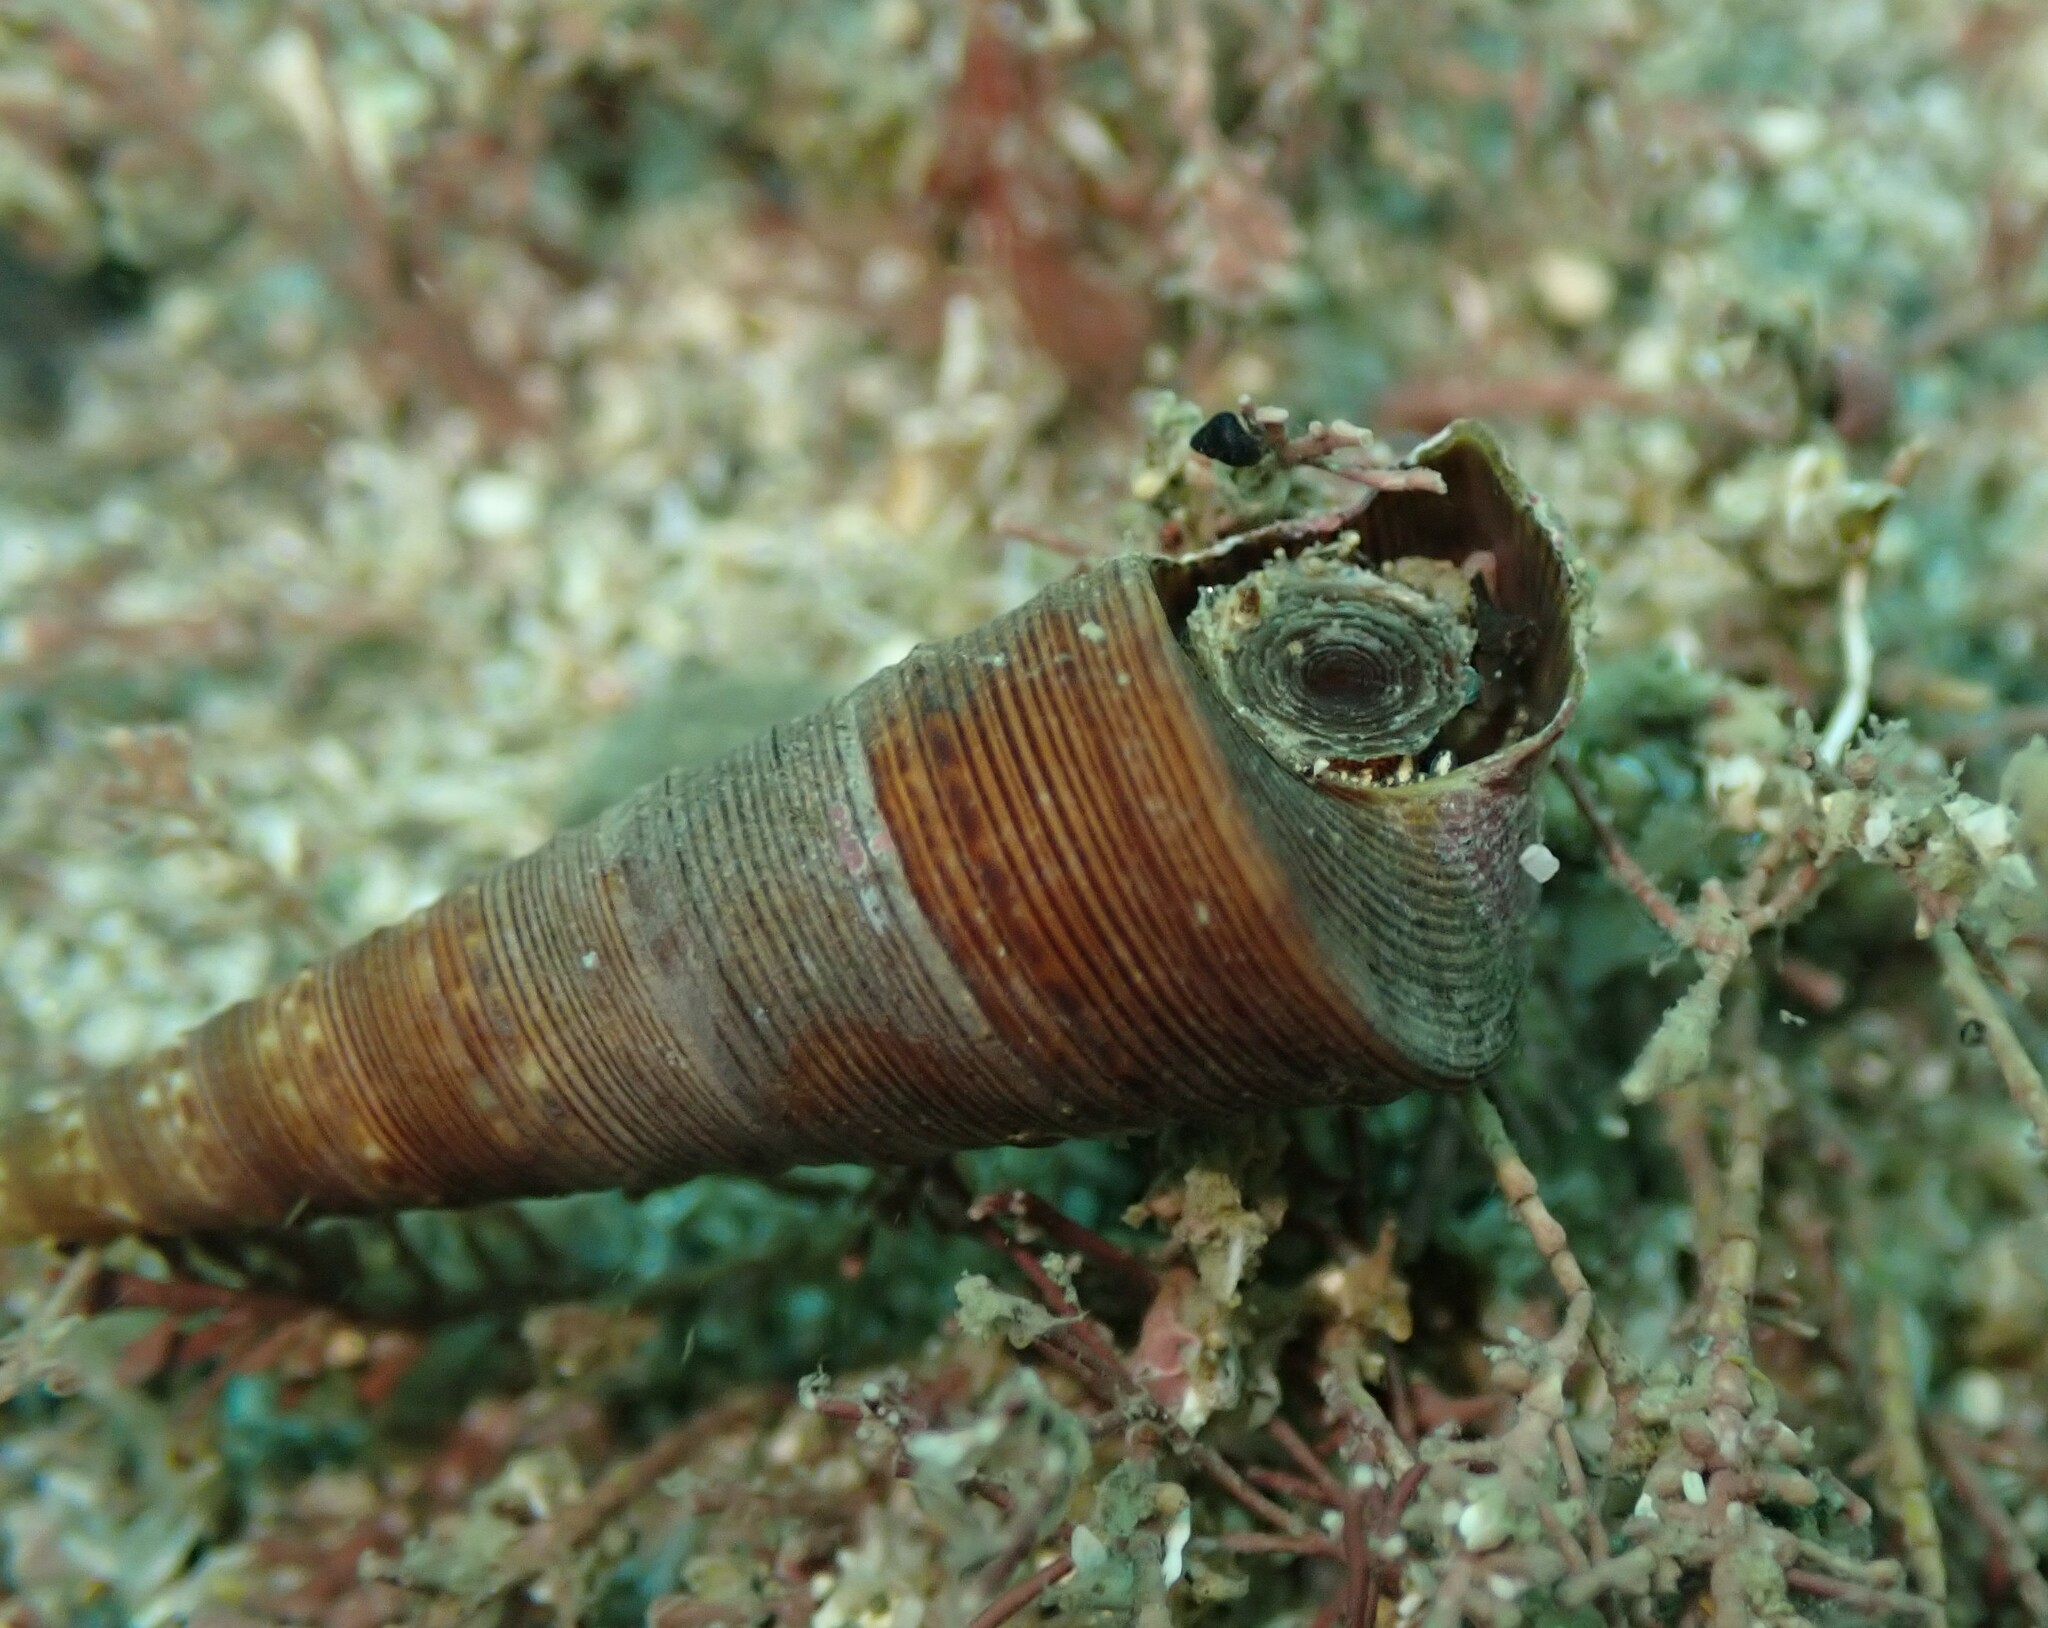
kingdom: Animalia
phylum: Mollusca
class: Gastropoda
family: Turritellidae
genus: Maoricolpus
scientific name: Maoricolpus roseus
